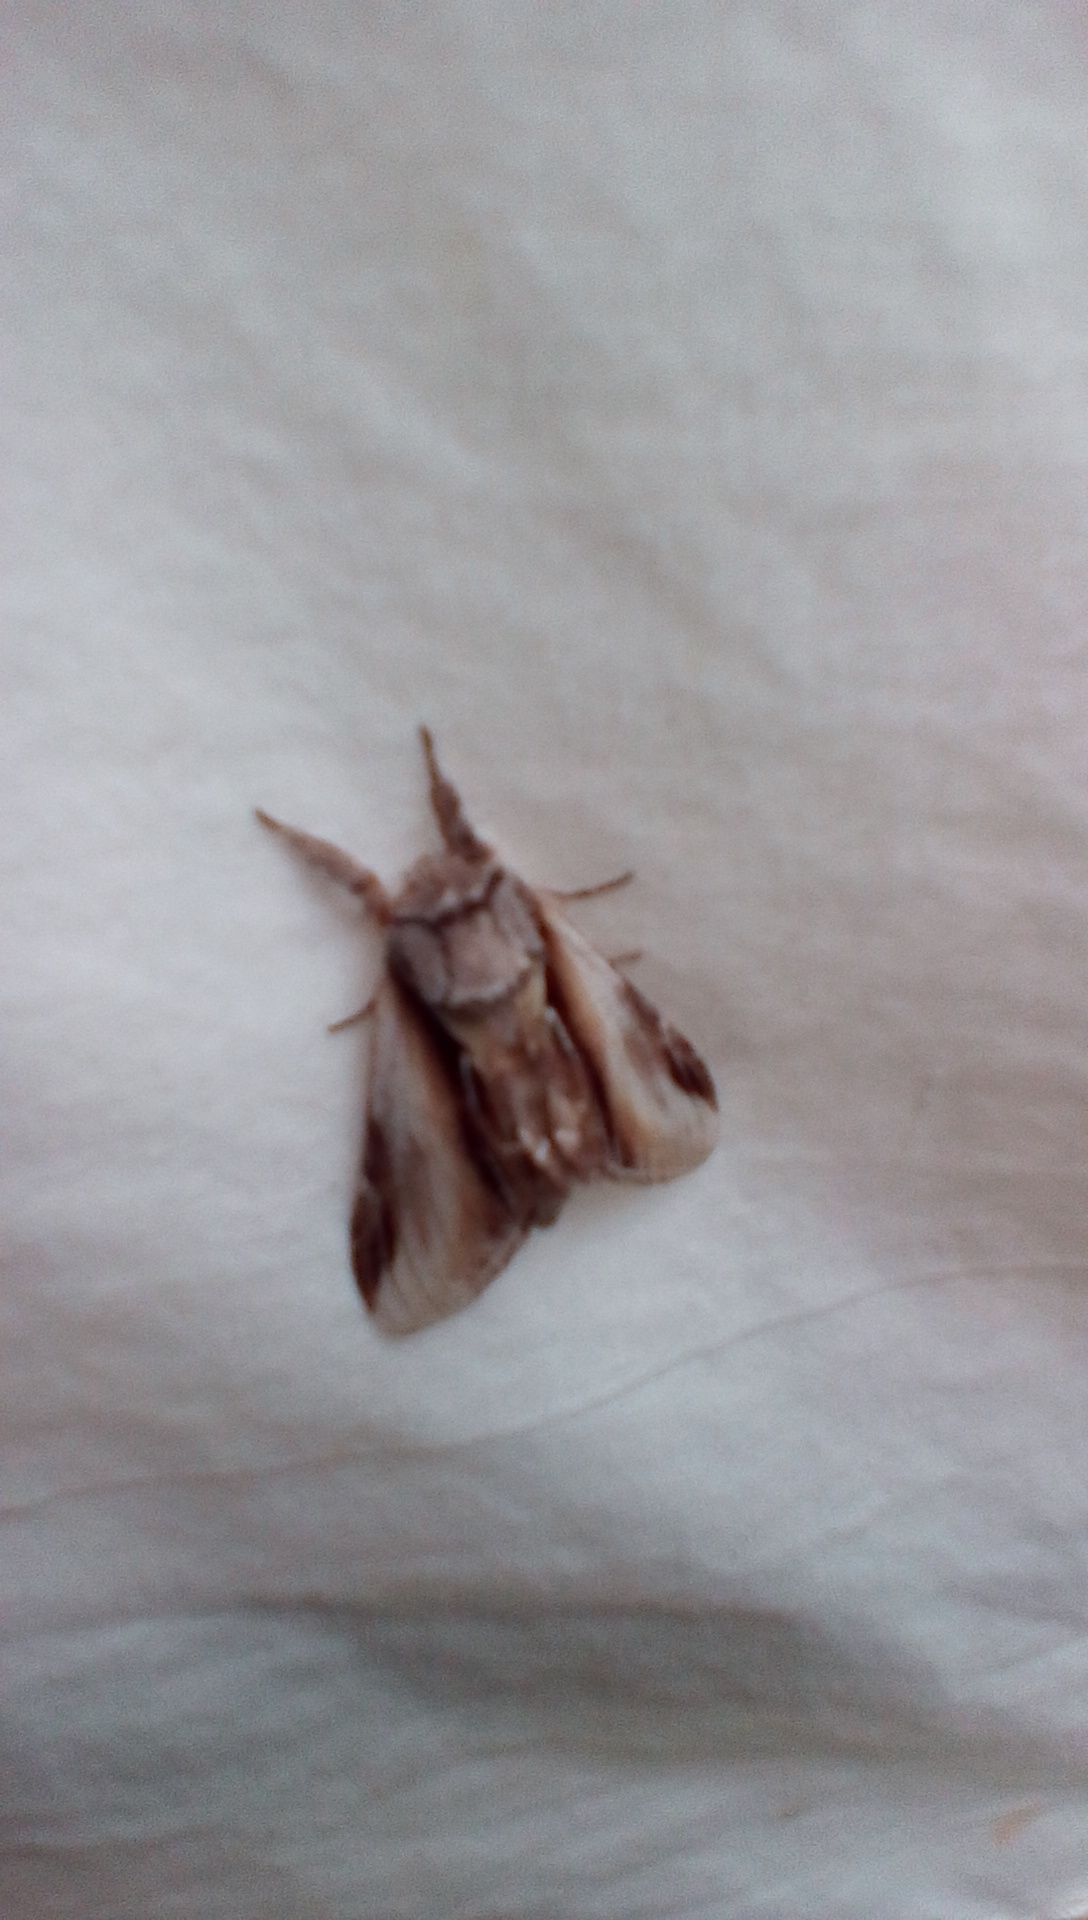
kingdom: Animalia
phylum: Arthropoda
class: Insecta
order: Lepidoptera
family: Notodontidae
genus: Pheosia
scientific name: Pheosia rimosa
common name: Black-rimmed prominent
